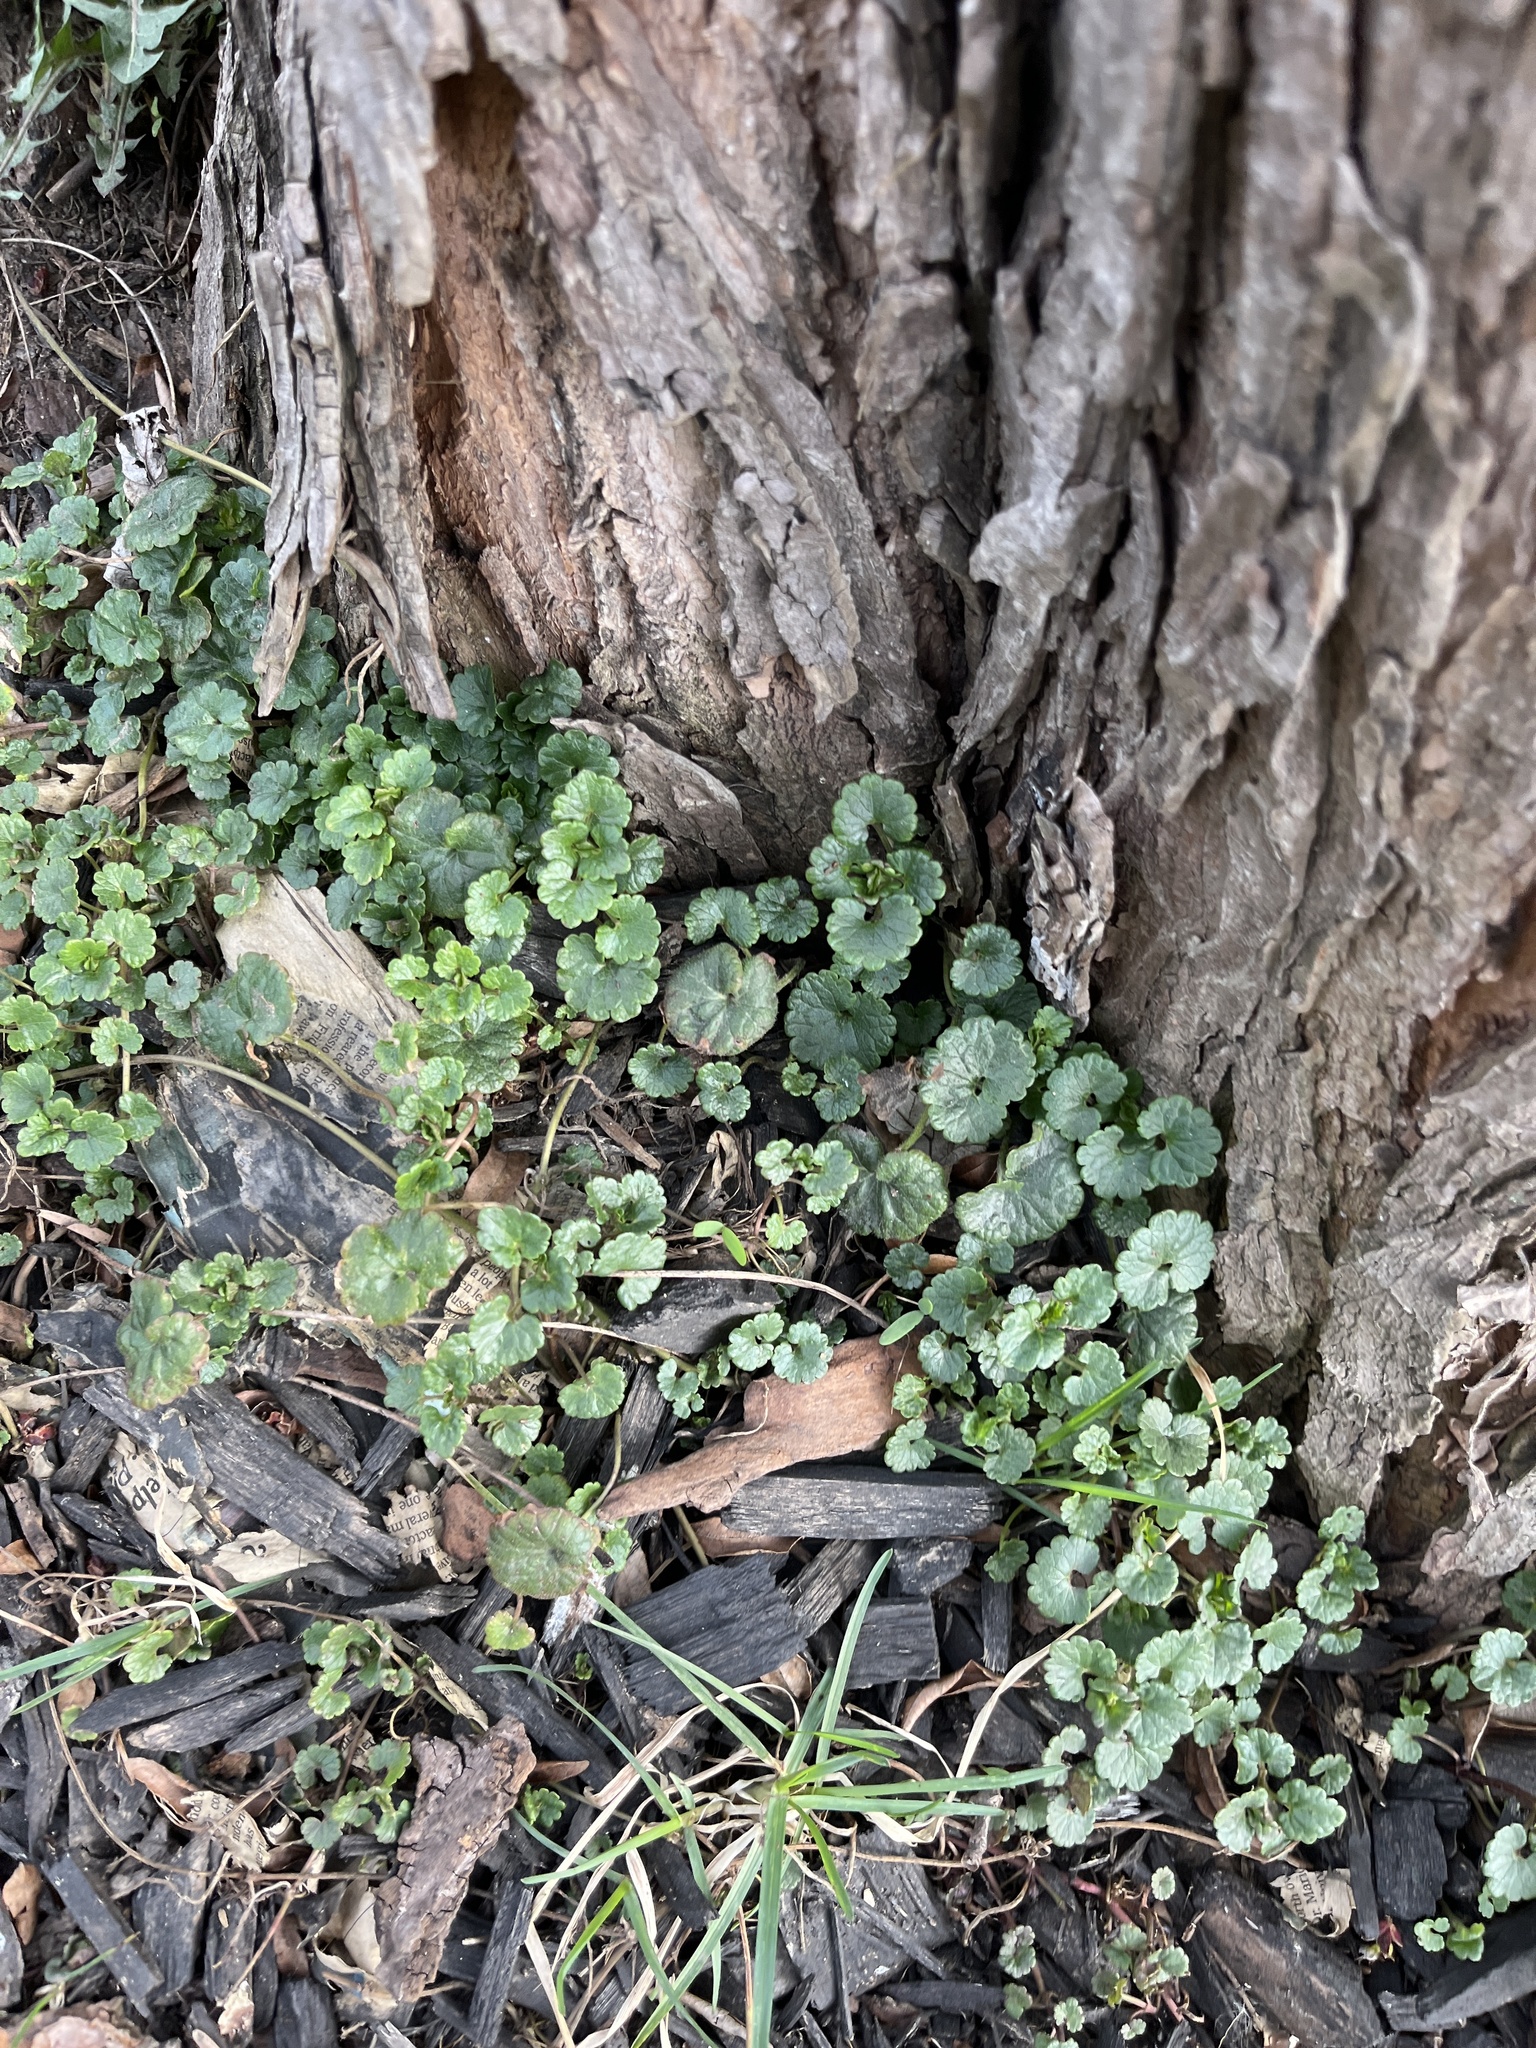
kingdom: Plantae
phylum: Tracheophyta
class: Magnoliopsida
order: Lamiales
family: Lamiaceae
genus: Glechoma
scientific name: Glechoma hederacea
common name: Ground ivy
